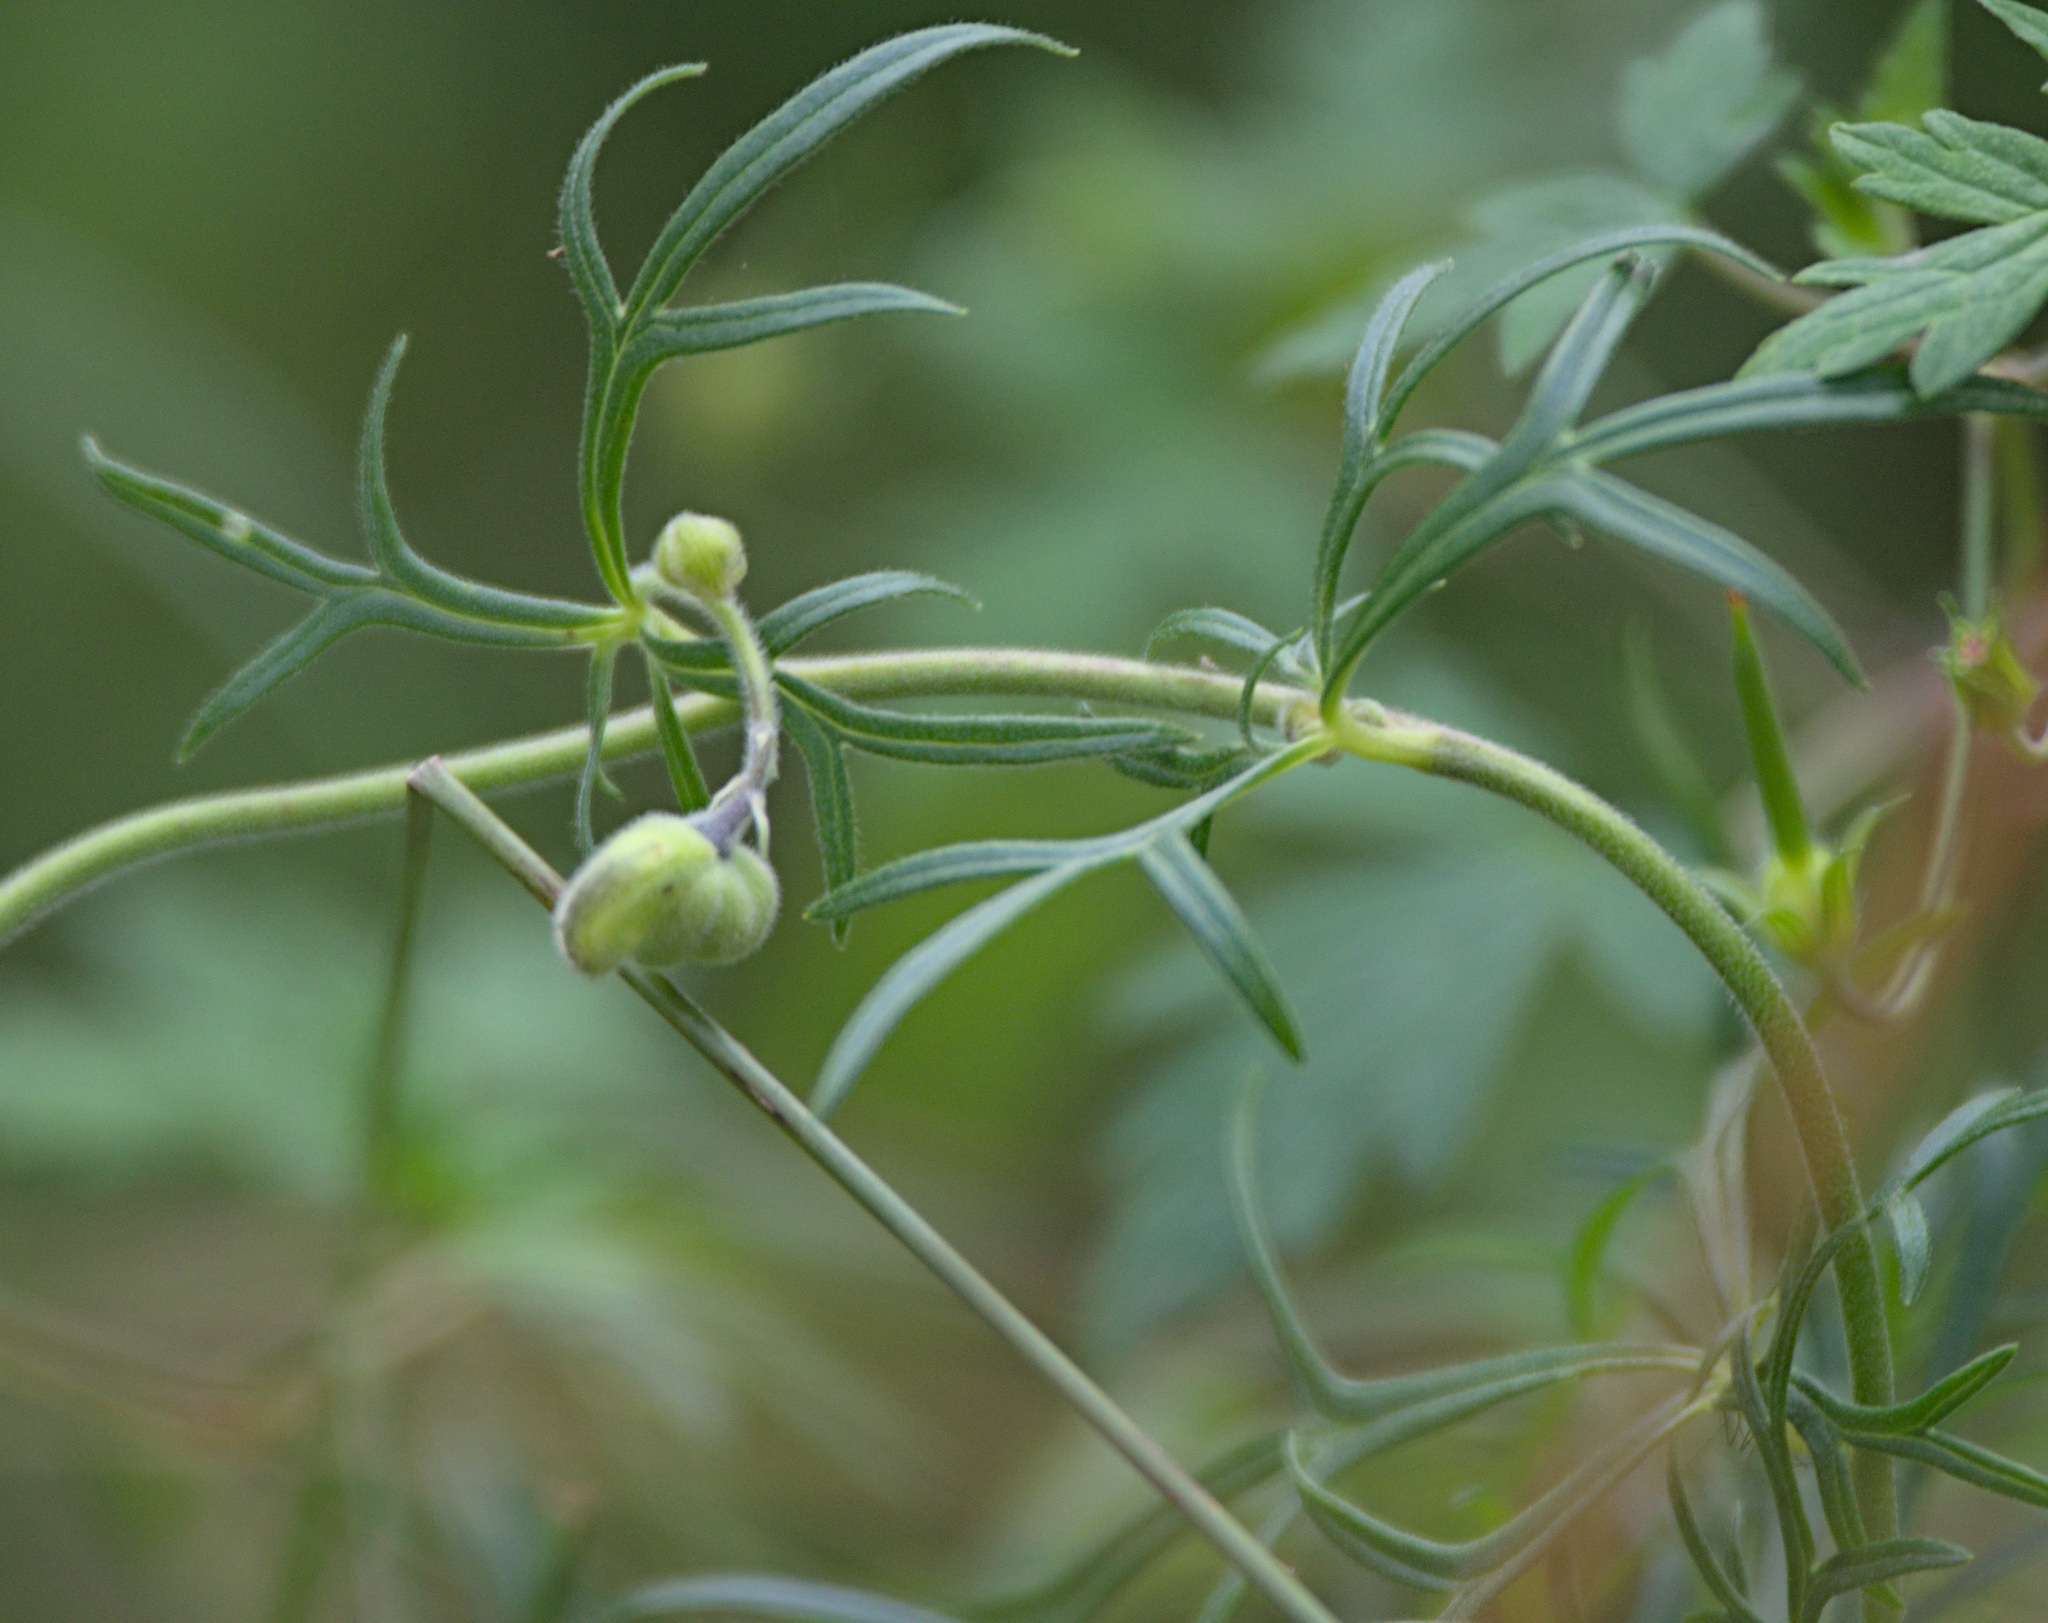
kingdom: Plantae
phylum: Tracheophyta
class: Magnoliopsida
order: Ranunculales
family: Ranunculaceae
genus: Aconitum
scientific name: Aconitum anthora
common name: Yellow monkshood
